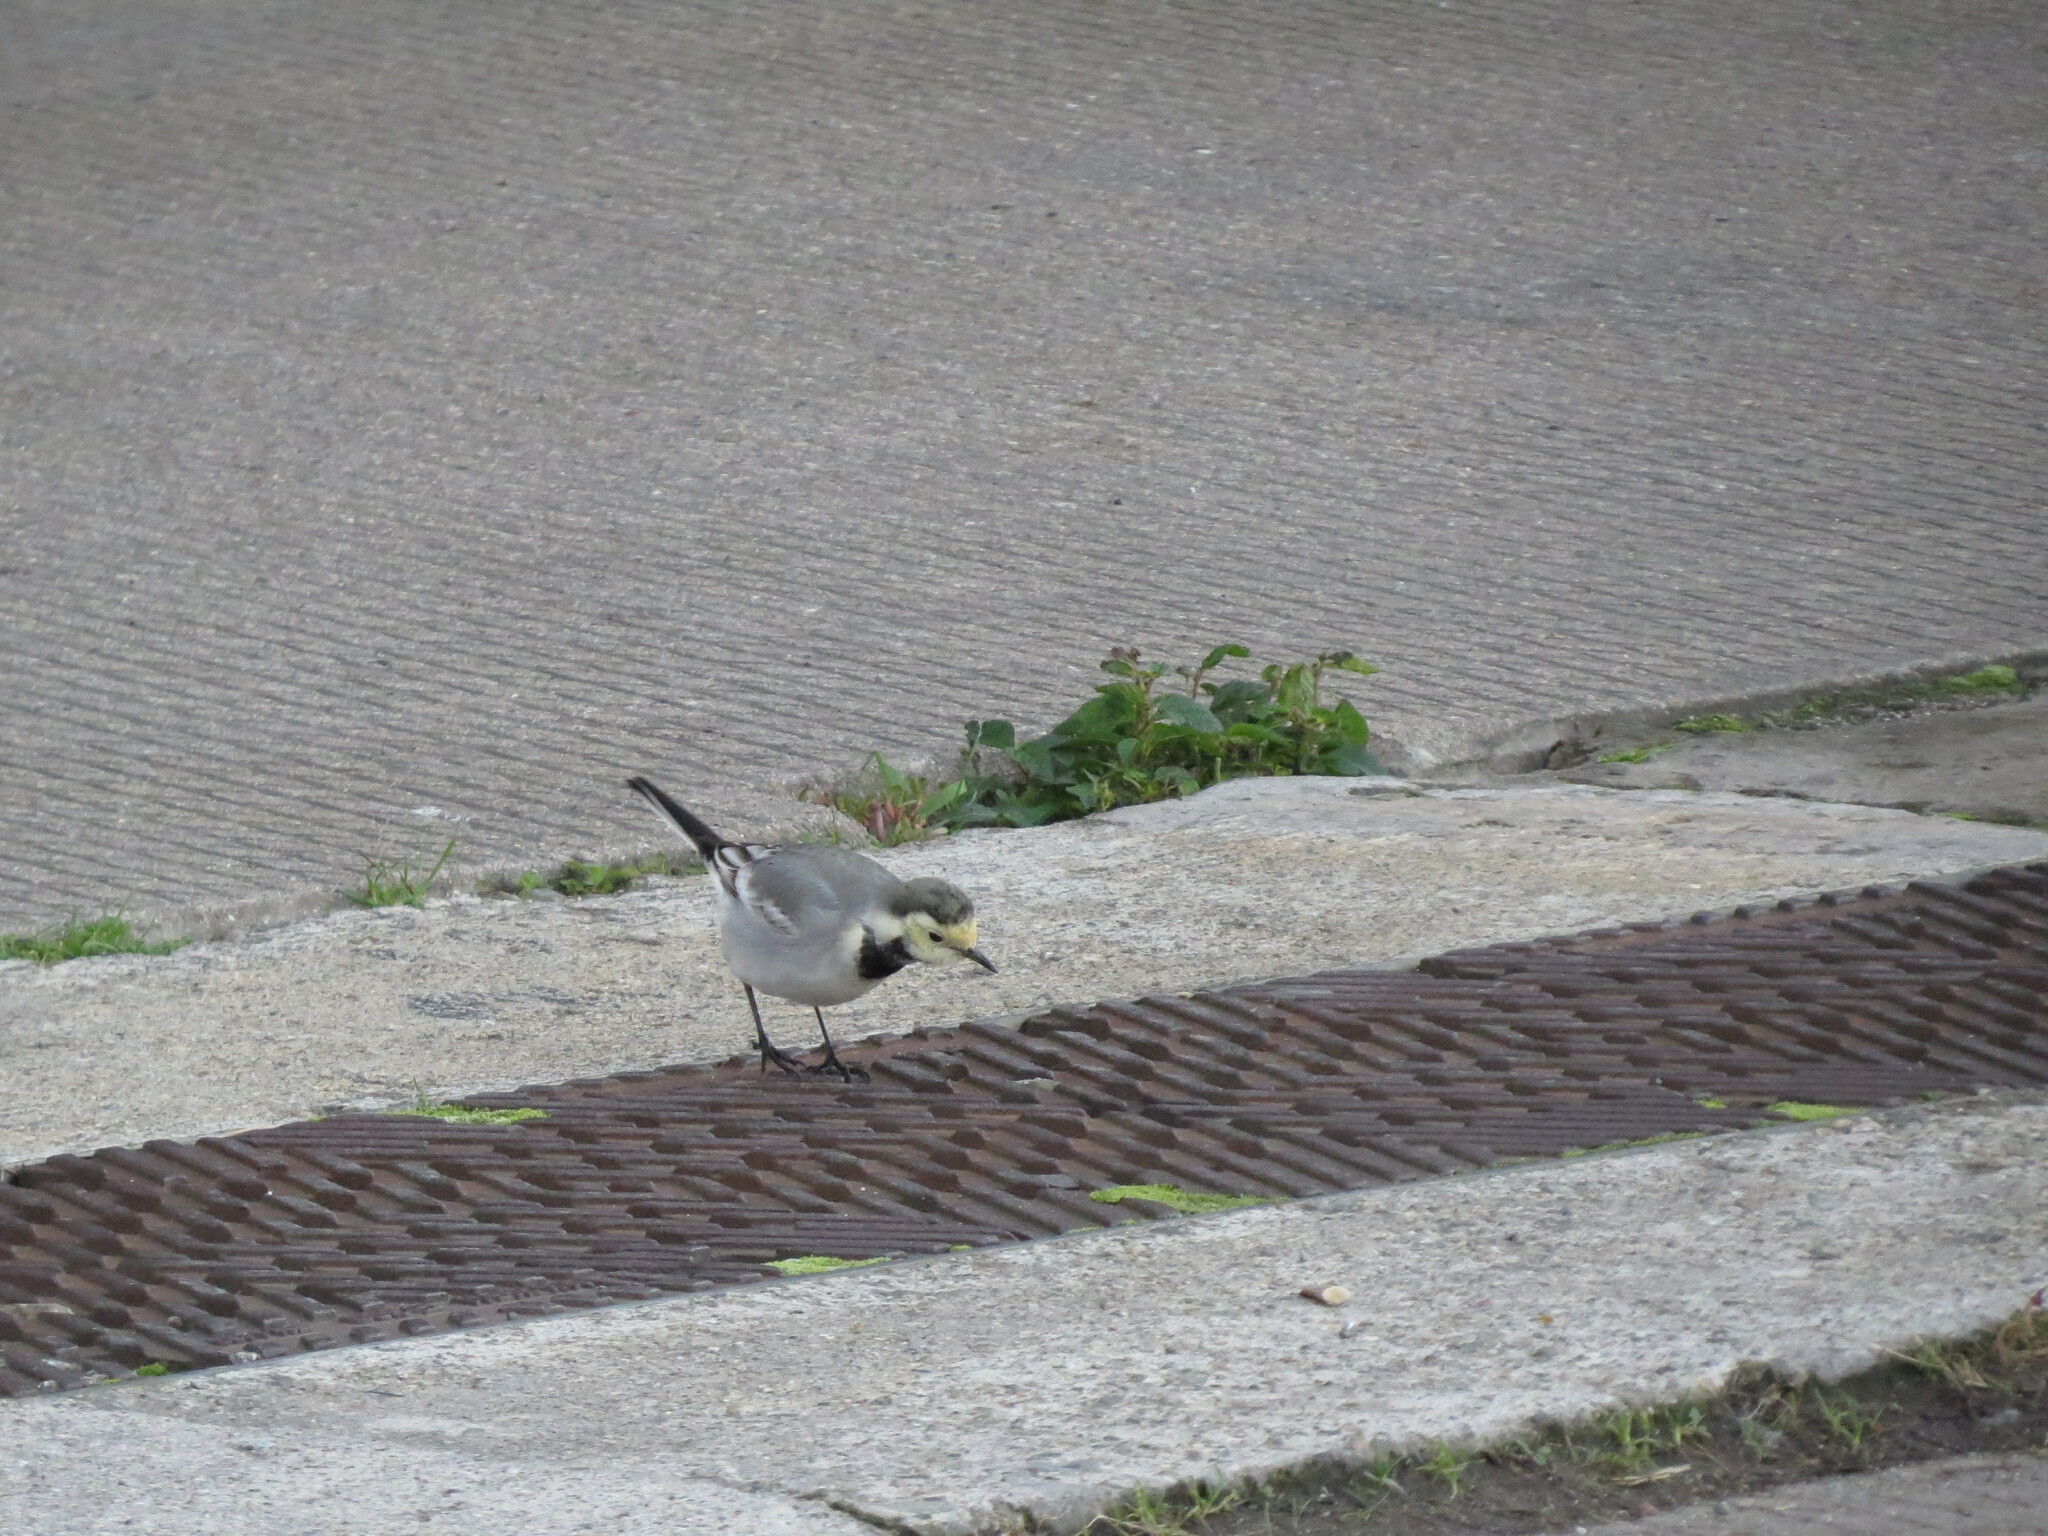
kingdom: Animalia
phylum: Chordata
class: Aves
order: Passeriformes
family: Motacillidae
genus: Motacilla
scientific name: Motacilla alba
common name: White wagtail
